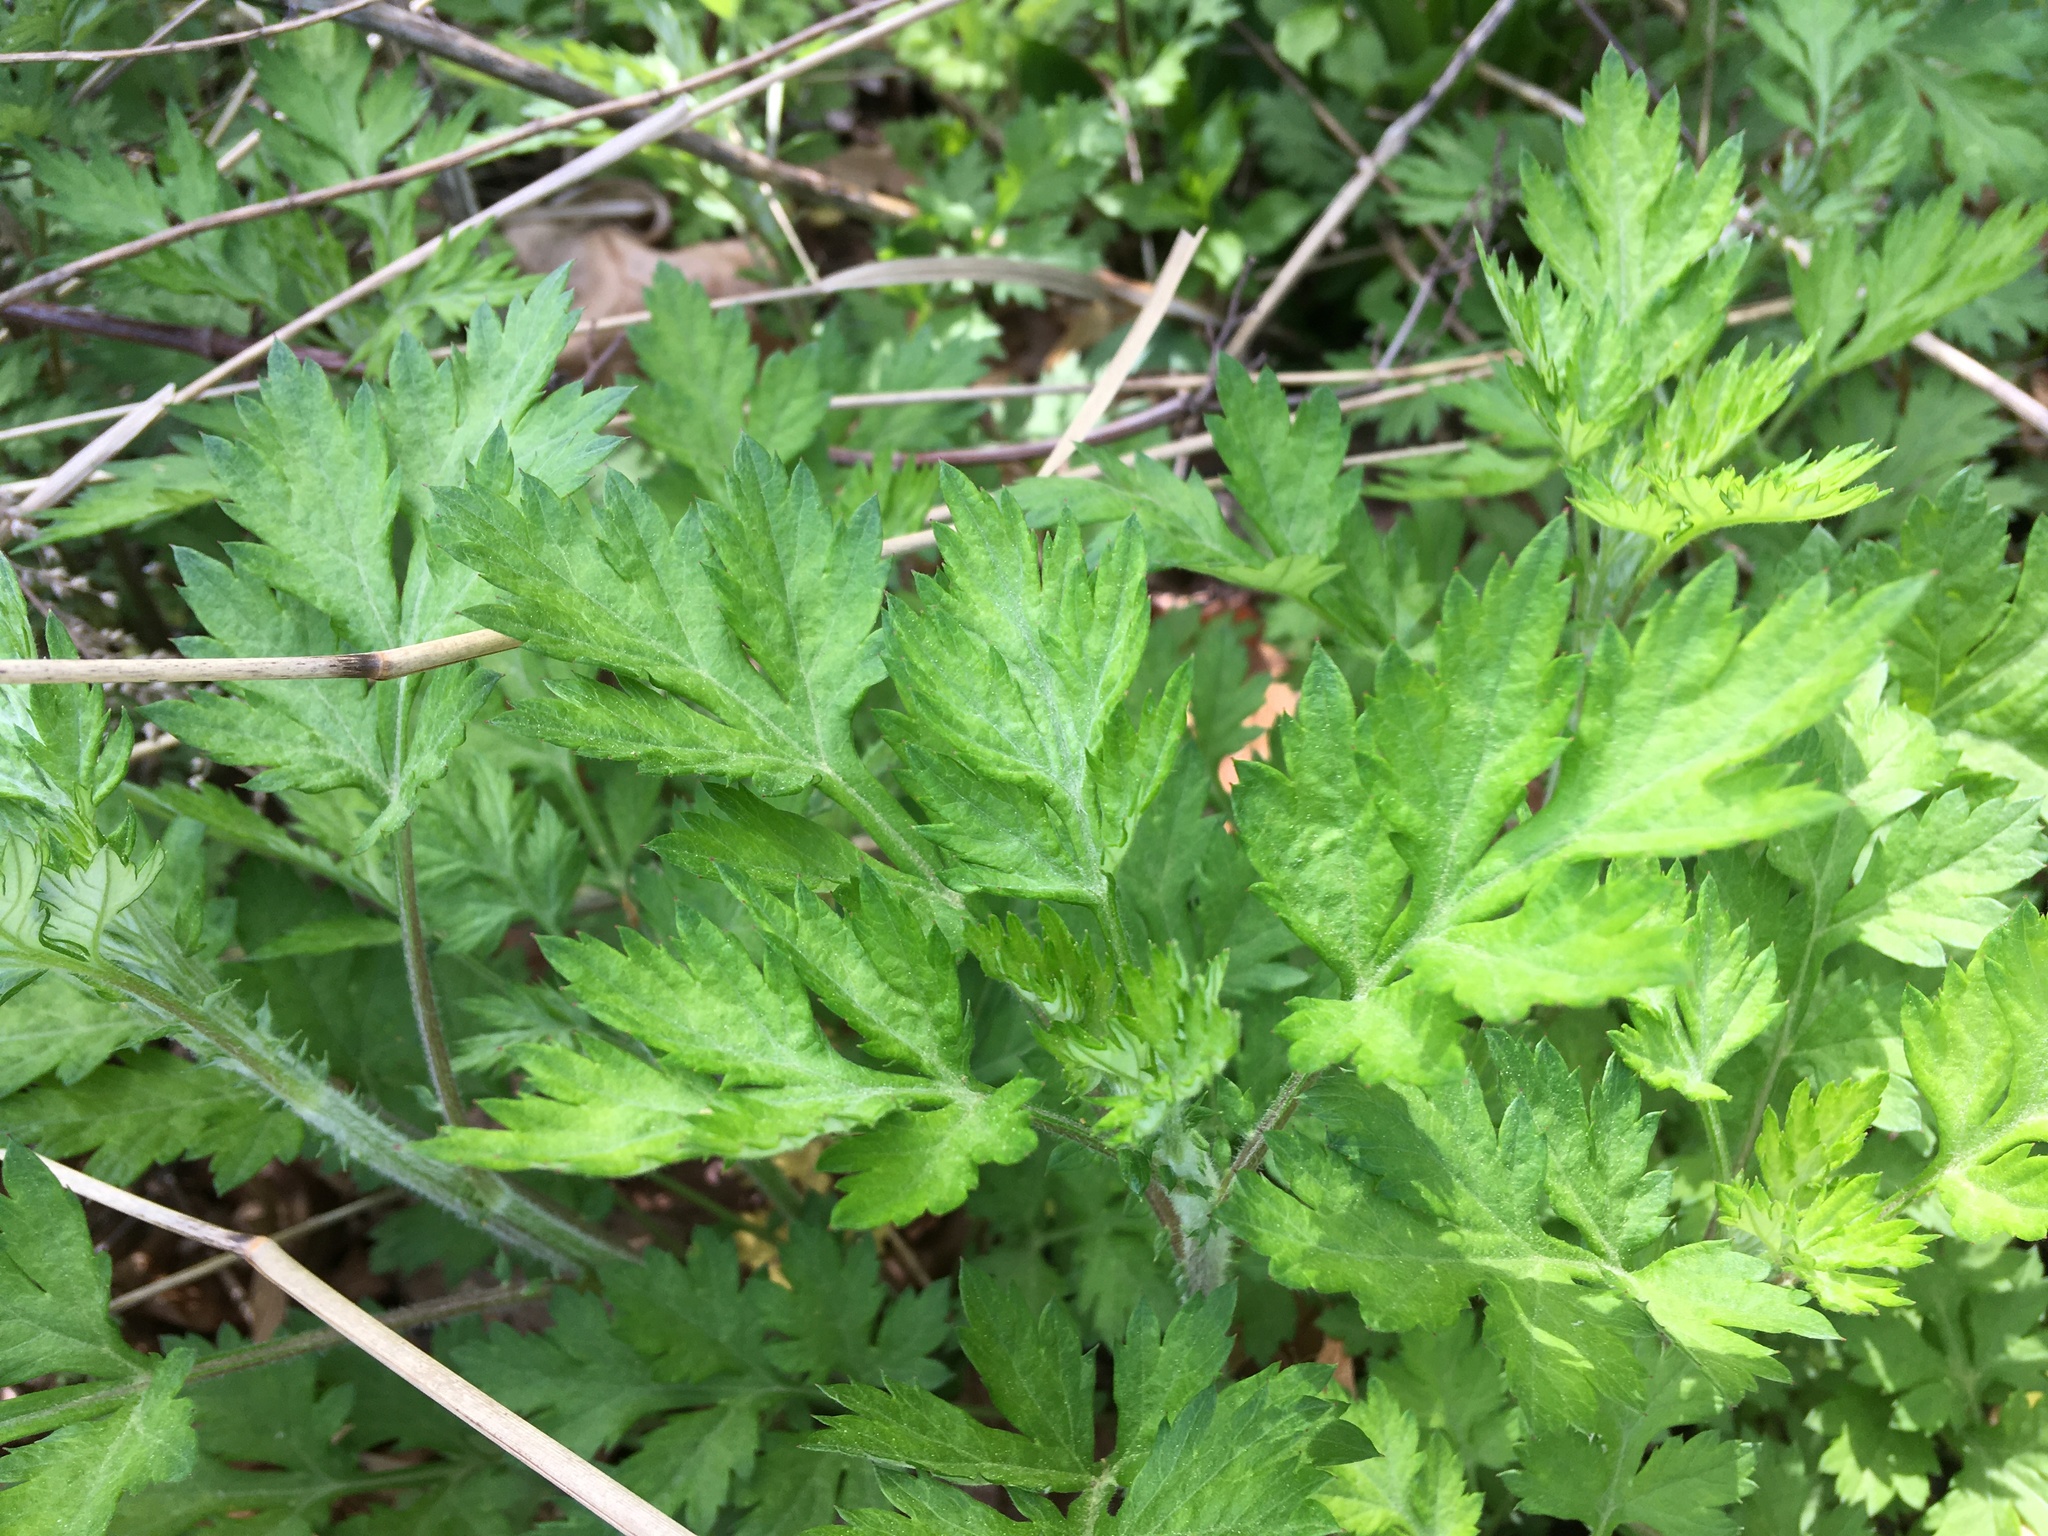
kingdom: Plantae
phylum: Tracheophyta
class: Magnoliopsida
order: Asterales
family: Asteraceae
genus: Artemisia
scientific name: Artemisia vulgaris
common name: Mugwort
